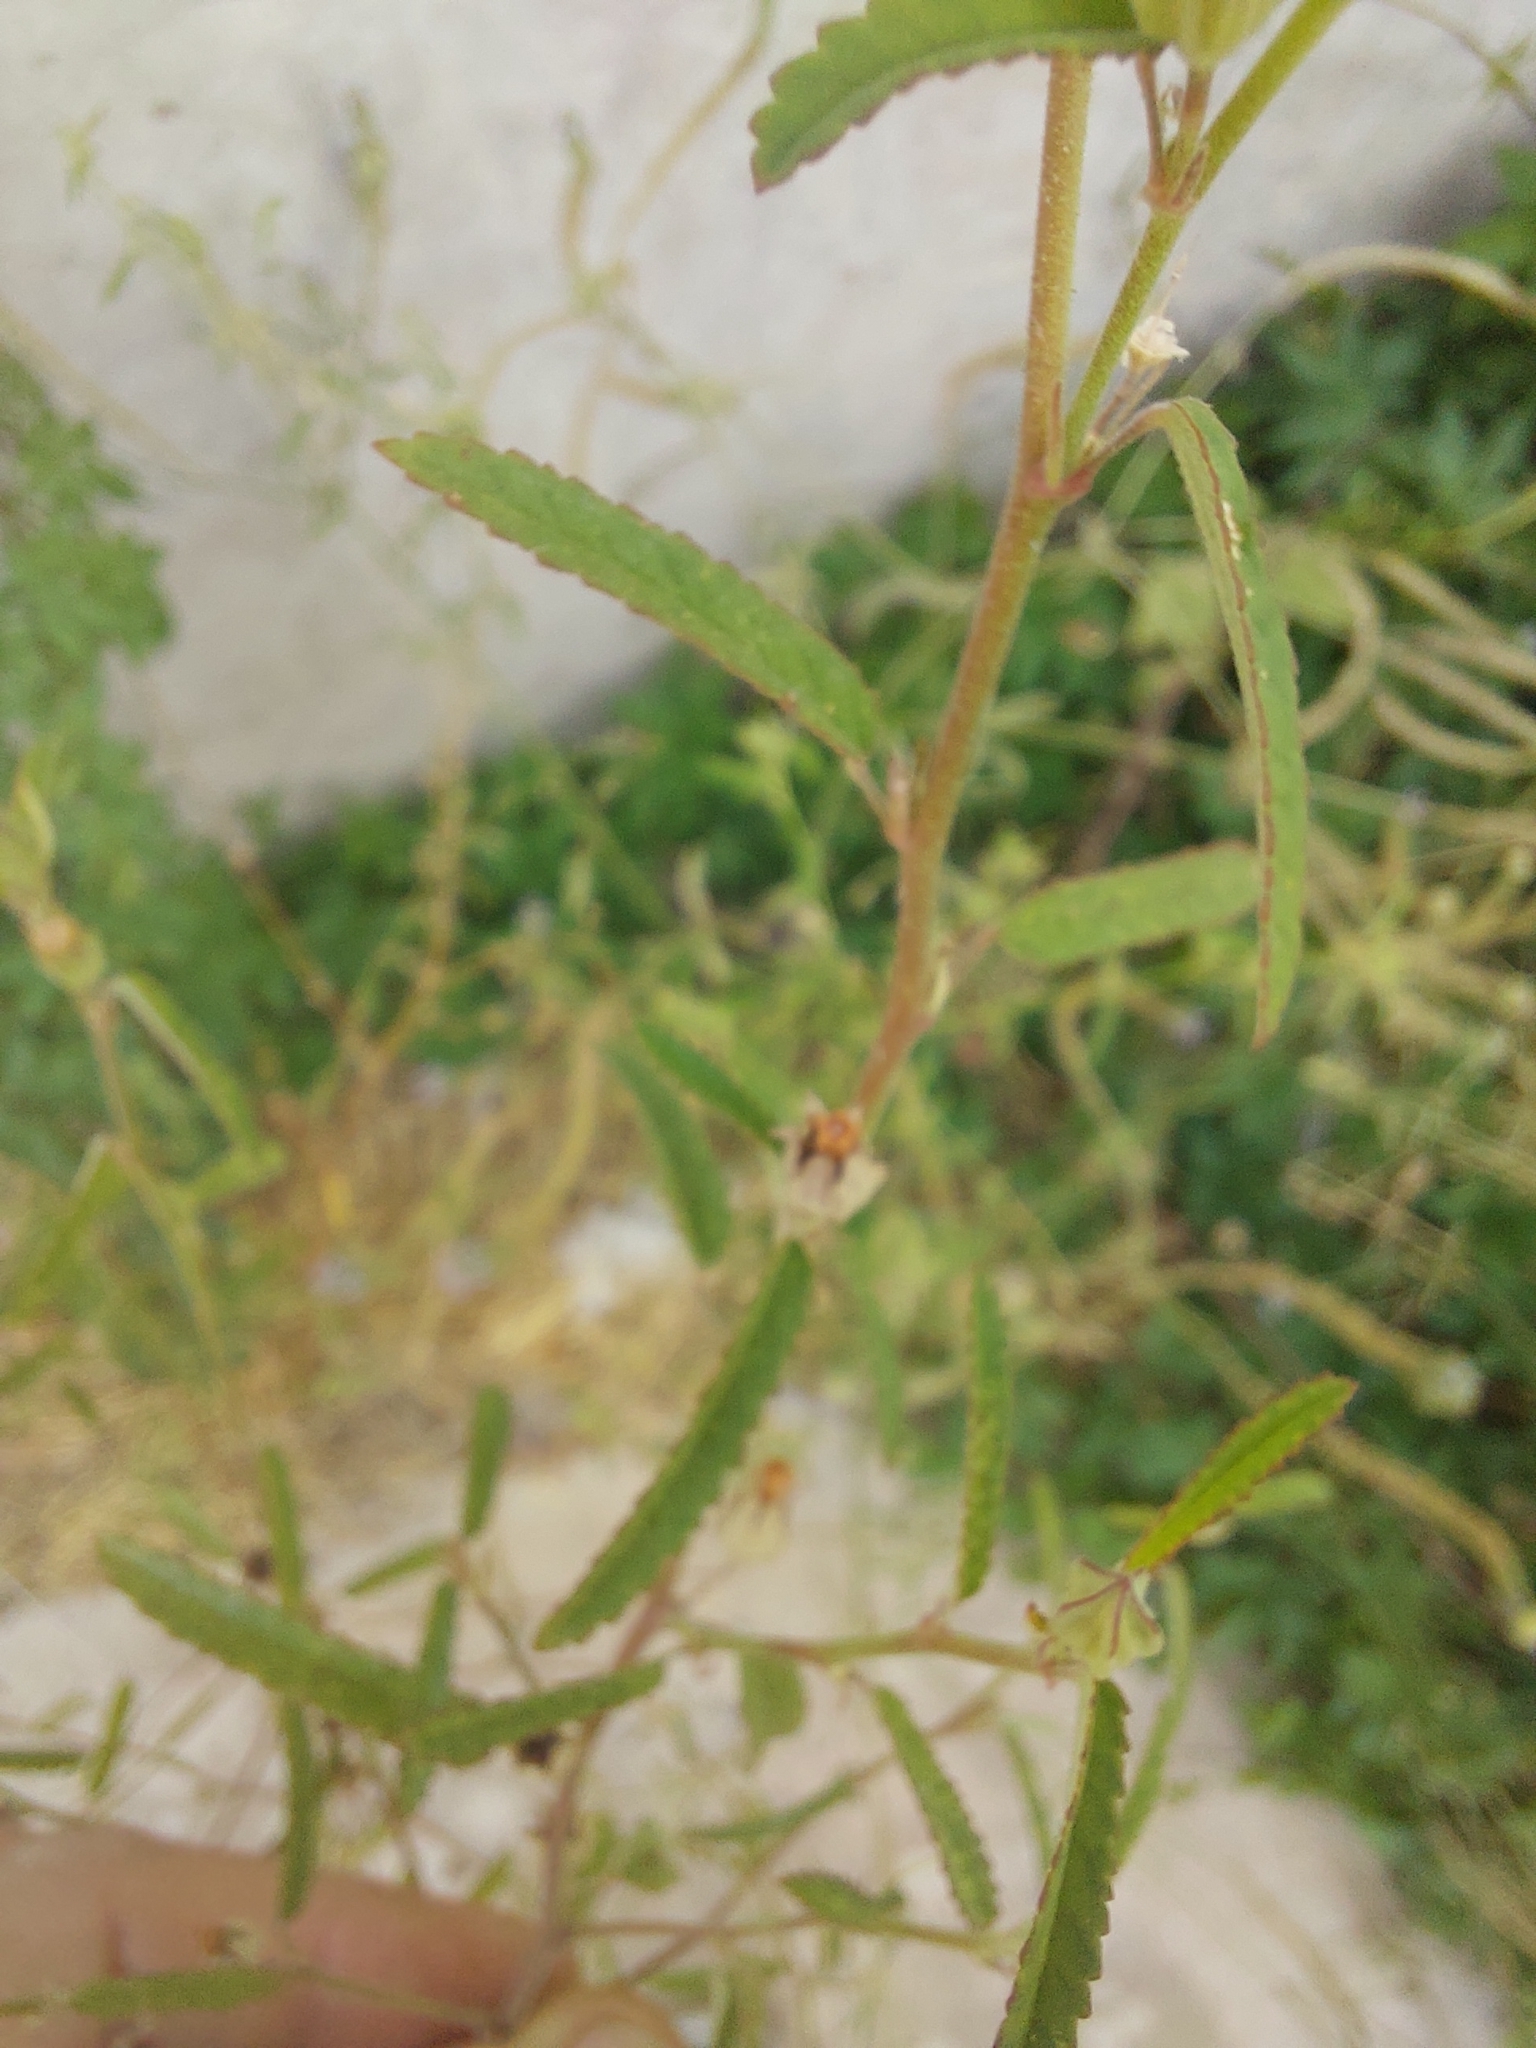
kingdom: Plantae
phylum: Tracheophyta
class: Magnoliopsida
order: Malvales
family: Malvaceae
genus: Sida
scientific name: Sida spinosa
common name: Prickly fanpetals
